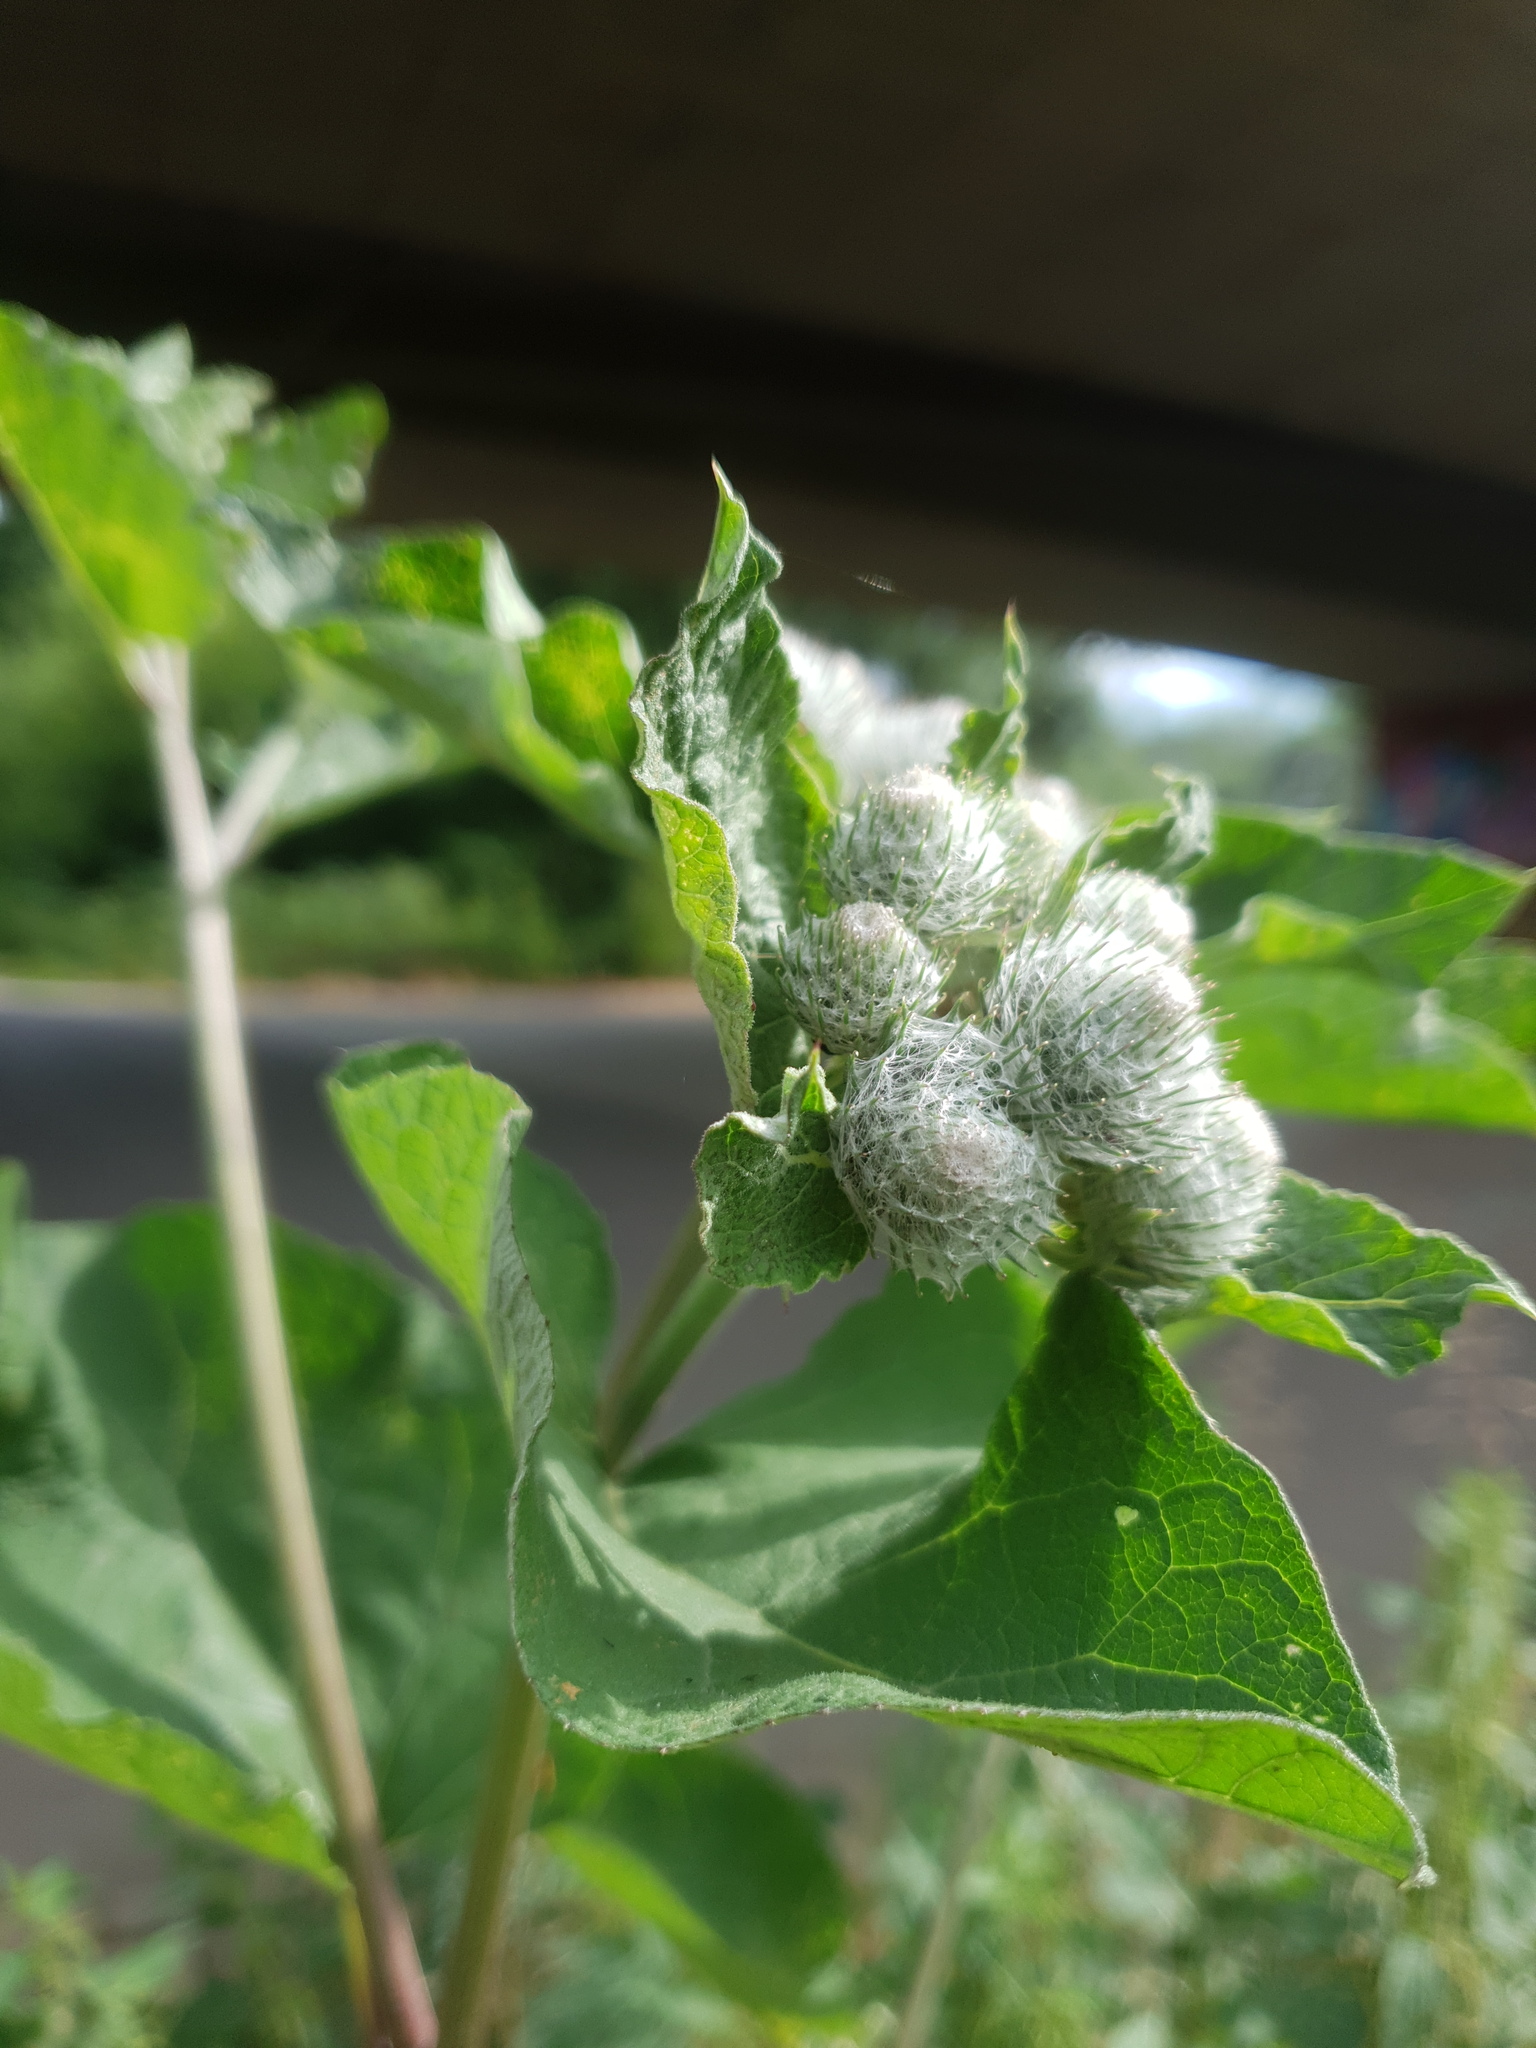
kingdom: Plantae
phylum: Tracheophyta
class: Magnoliopsida
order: Asterales
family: Asteraceae
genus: Arctium
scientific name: Arctium tomentosum
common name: Woolly burdock
